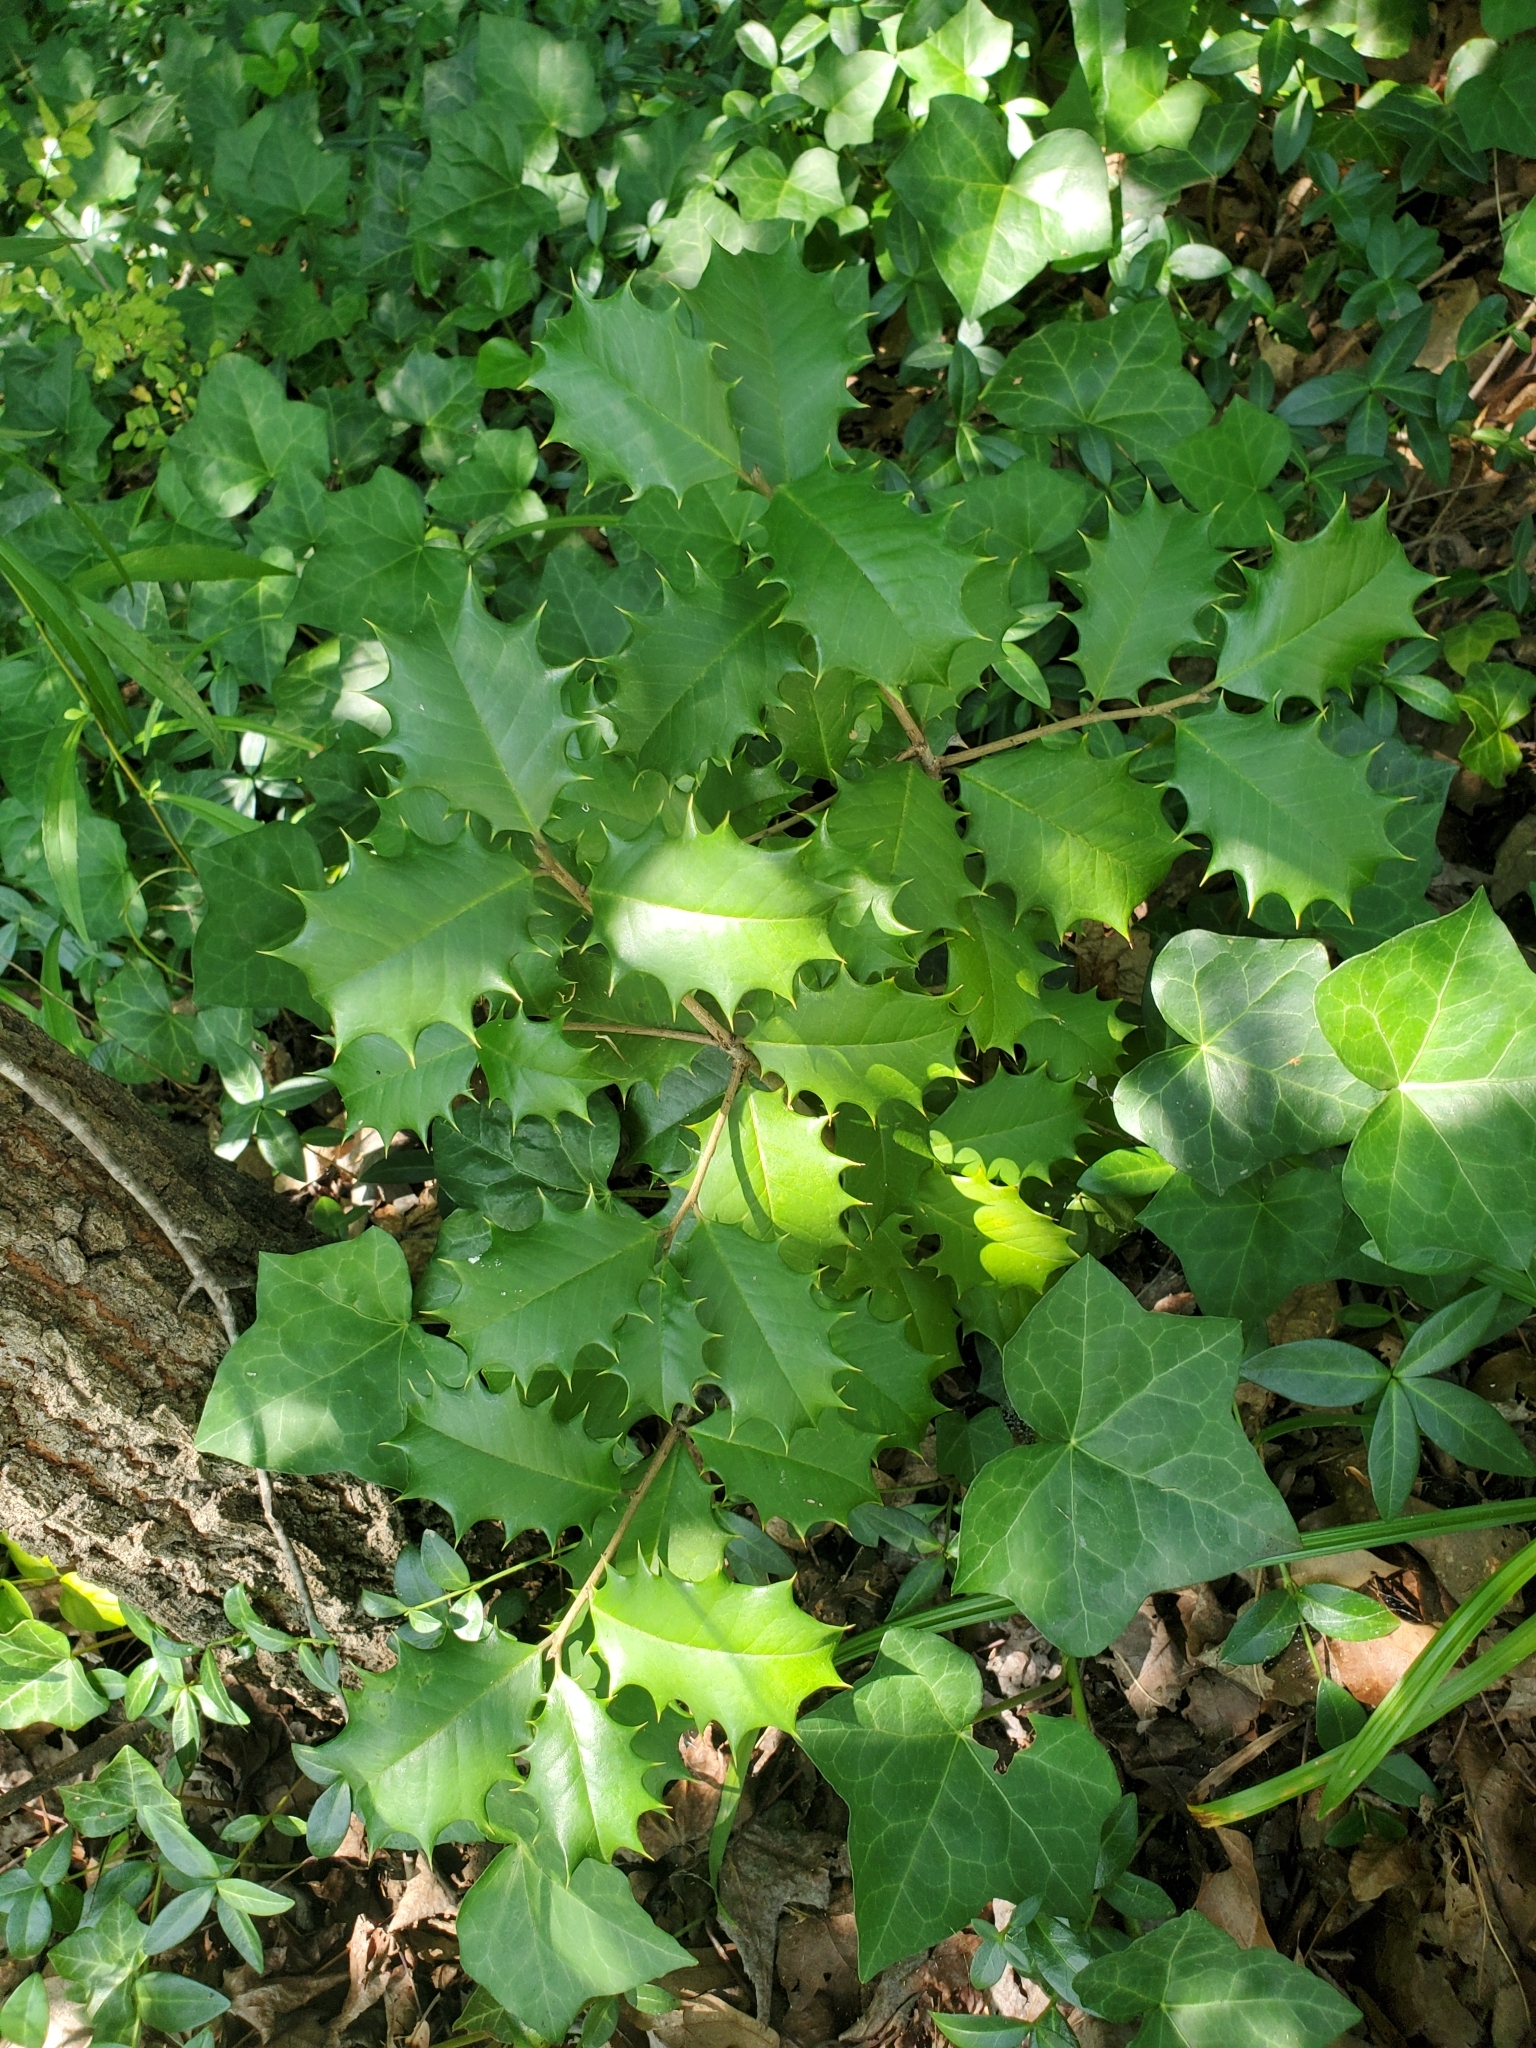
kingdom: Plantae
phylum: Tracheophyta
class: Magnoliopsida
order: Aquifoliales
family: Aquifoliaceae
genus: Ilex
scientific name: Ilex opaca
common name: American holly
